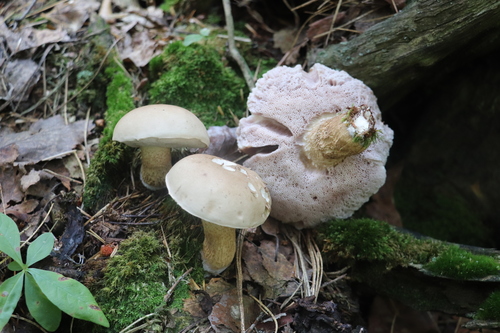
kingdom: Fungi
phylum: Basidiomycota
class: Agaricomycetes
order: Boletales
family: Boletaceae
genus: Tylopilus
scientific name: Tylopilus felleus
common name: Bitter bolete
